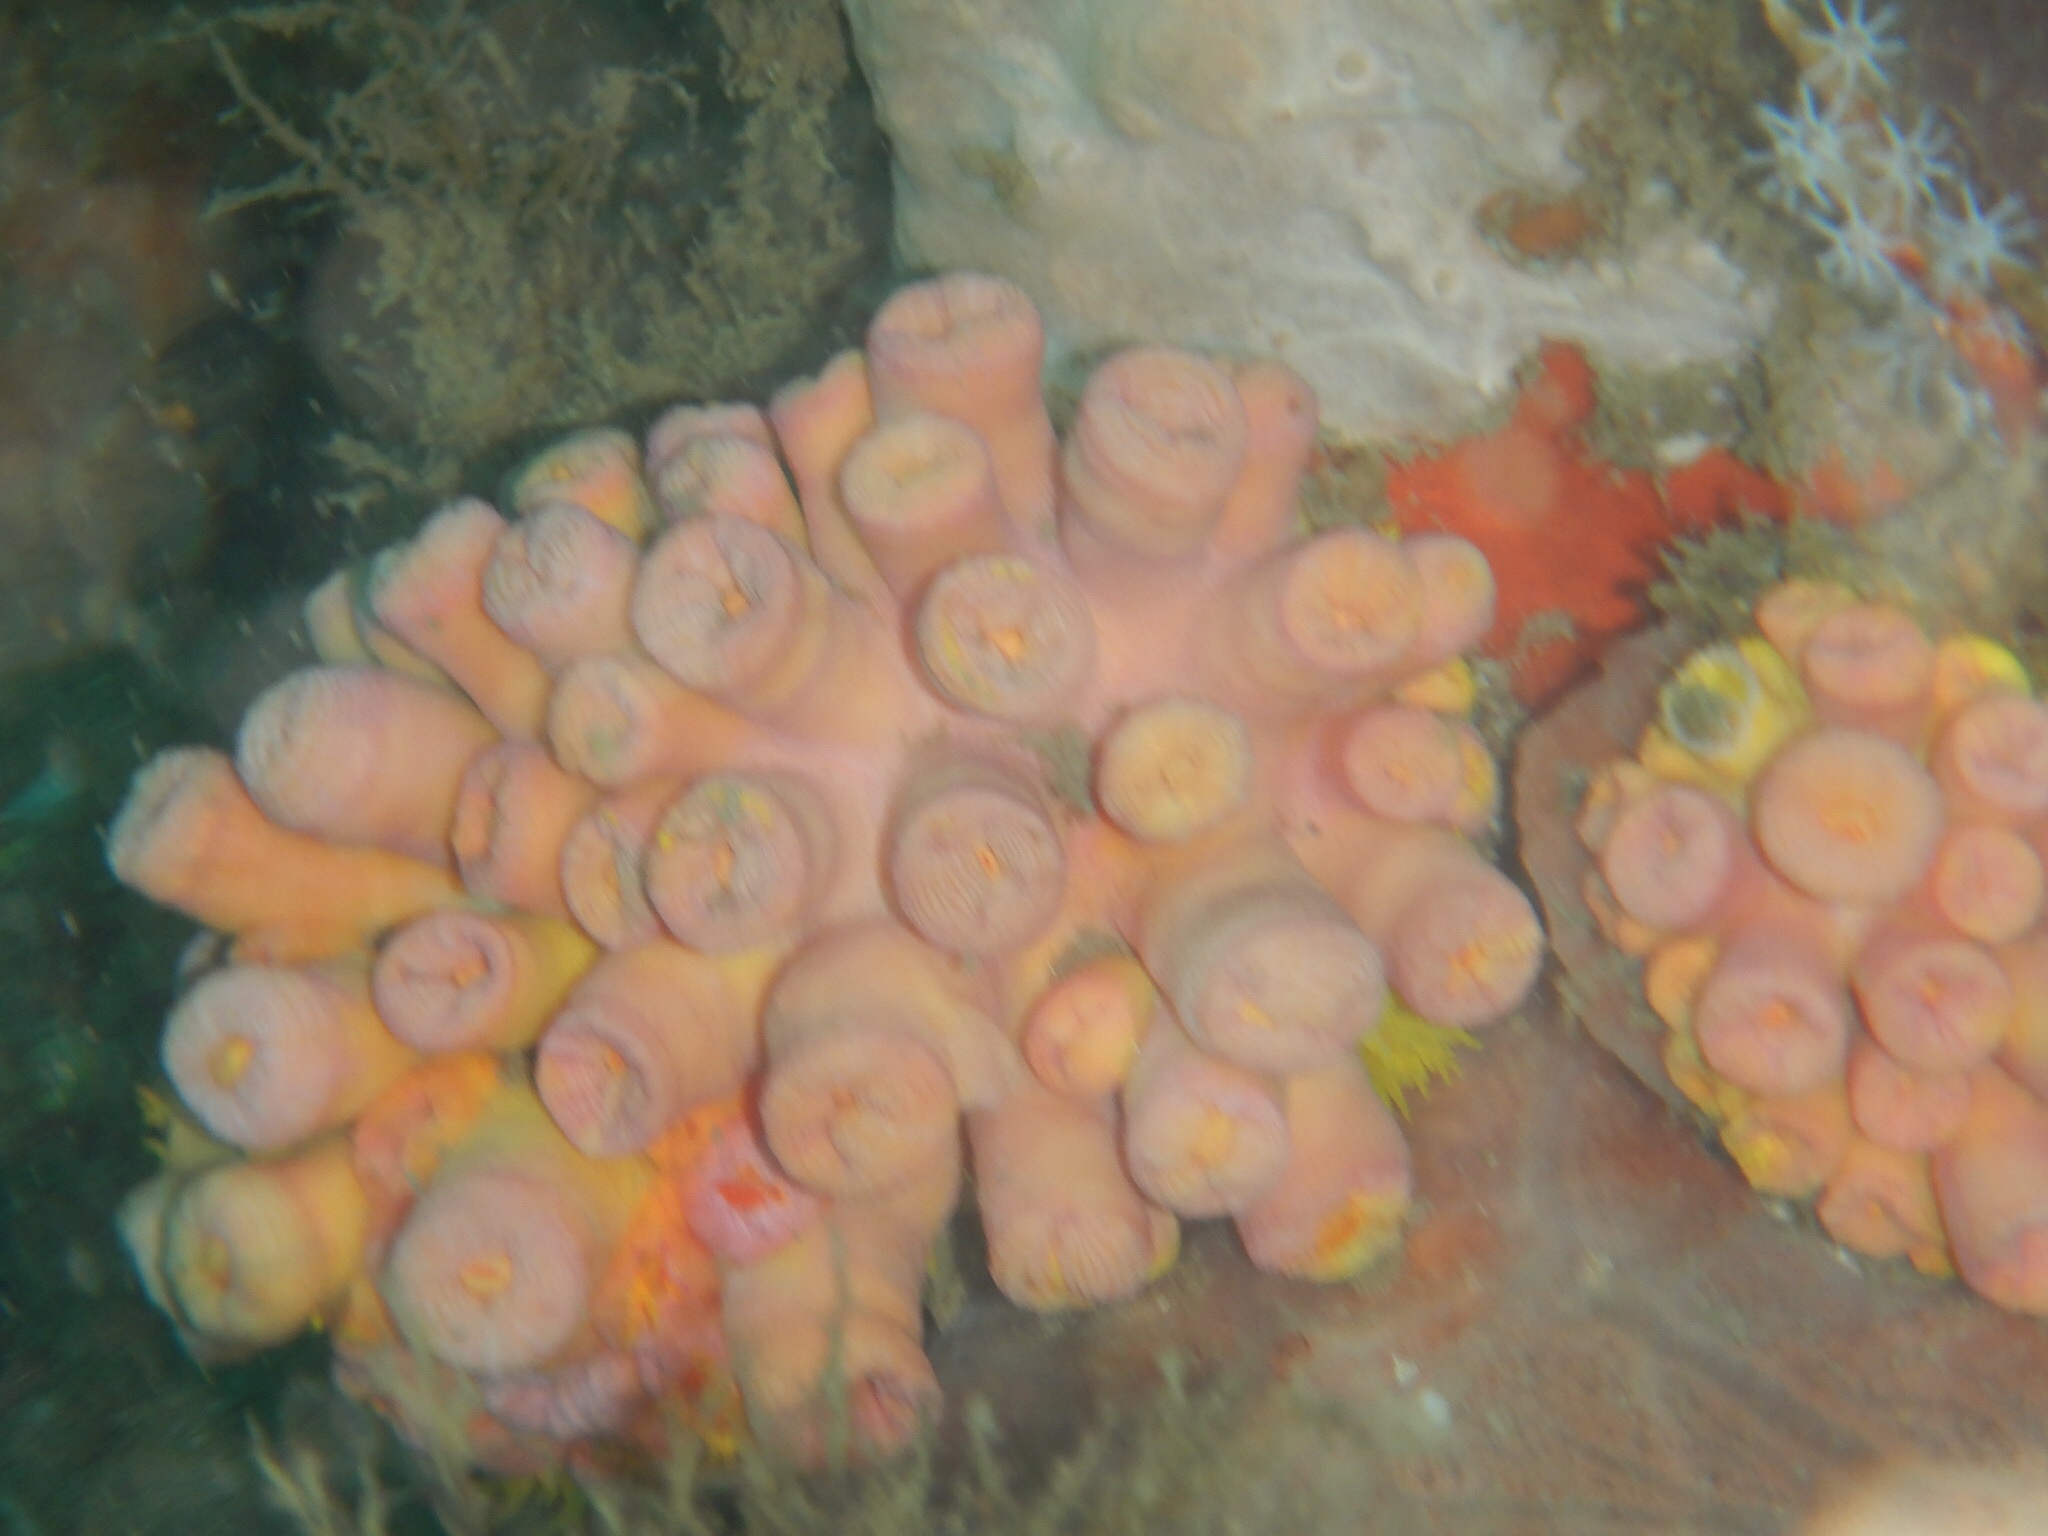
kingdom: Animalia
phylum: Cnidaria
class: Anthozoa
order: Scleractinia
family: Dendrophylliidae
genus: Tubastraea
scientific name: Tubastraea coccinea
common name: Orange cup coral
